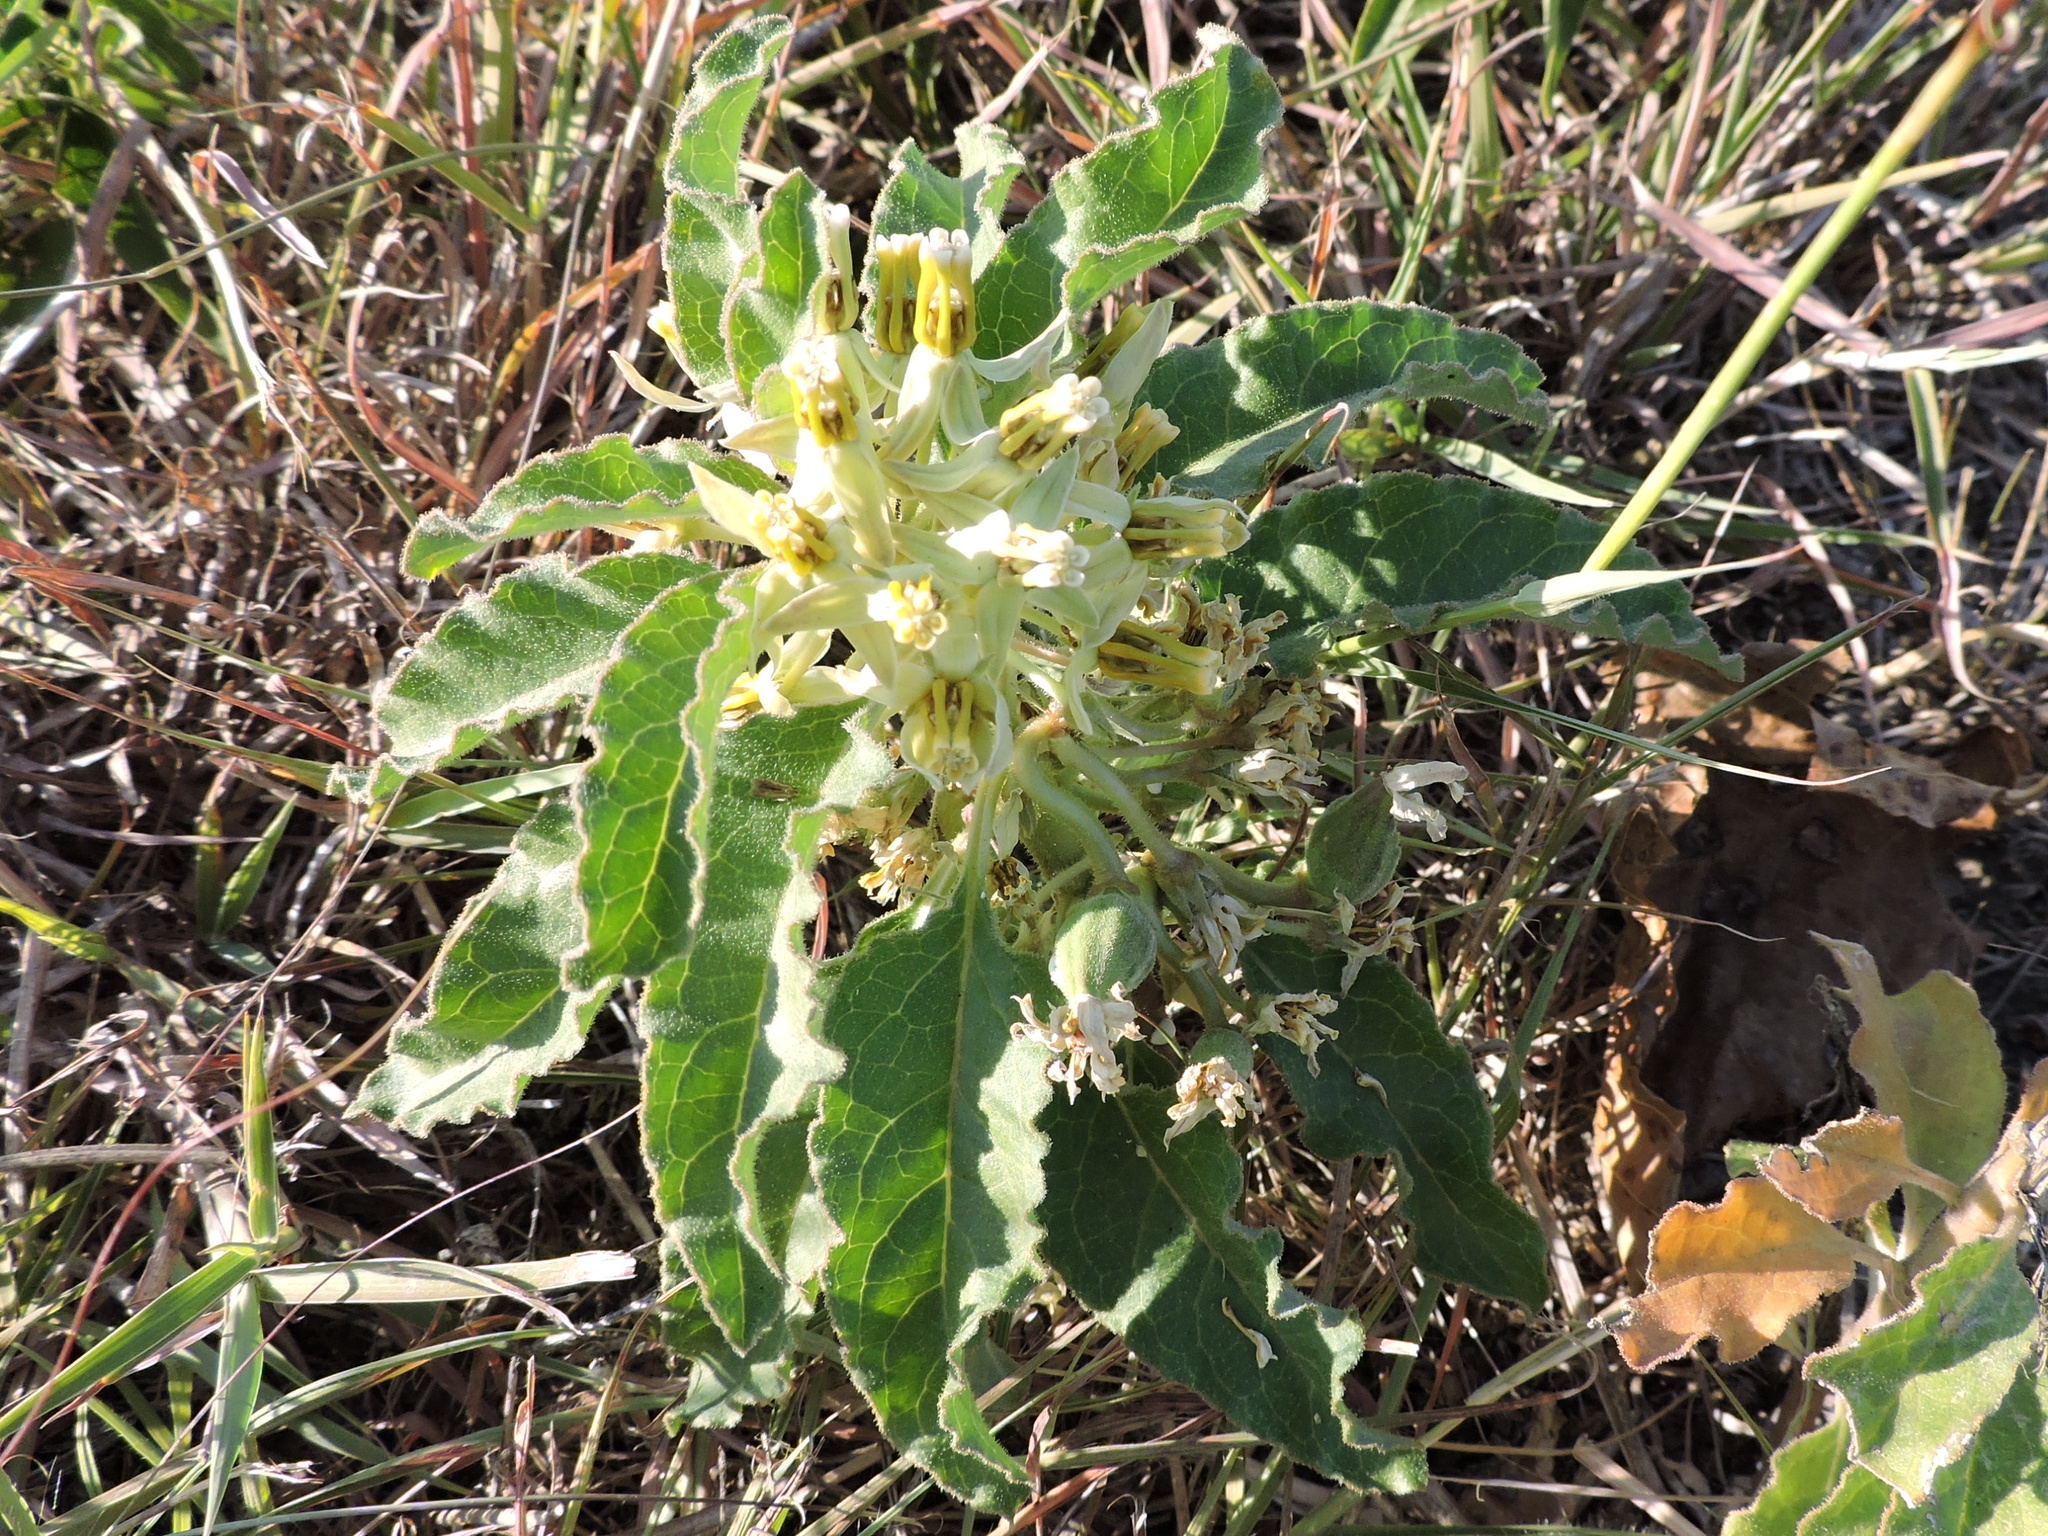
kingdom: Plantae
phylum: Tracheophyta
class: Magnoliopsida
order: Gentianales
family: Apocynaceae
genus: Asclepias
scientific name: Asclepias oenotheroides
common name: Zizotes milkweed
